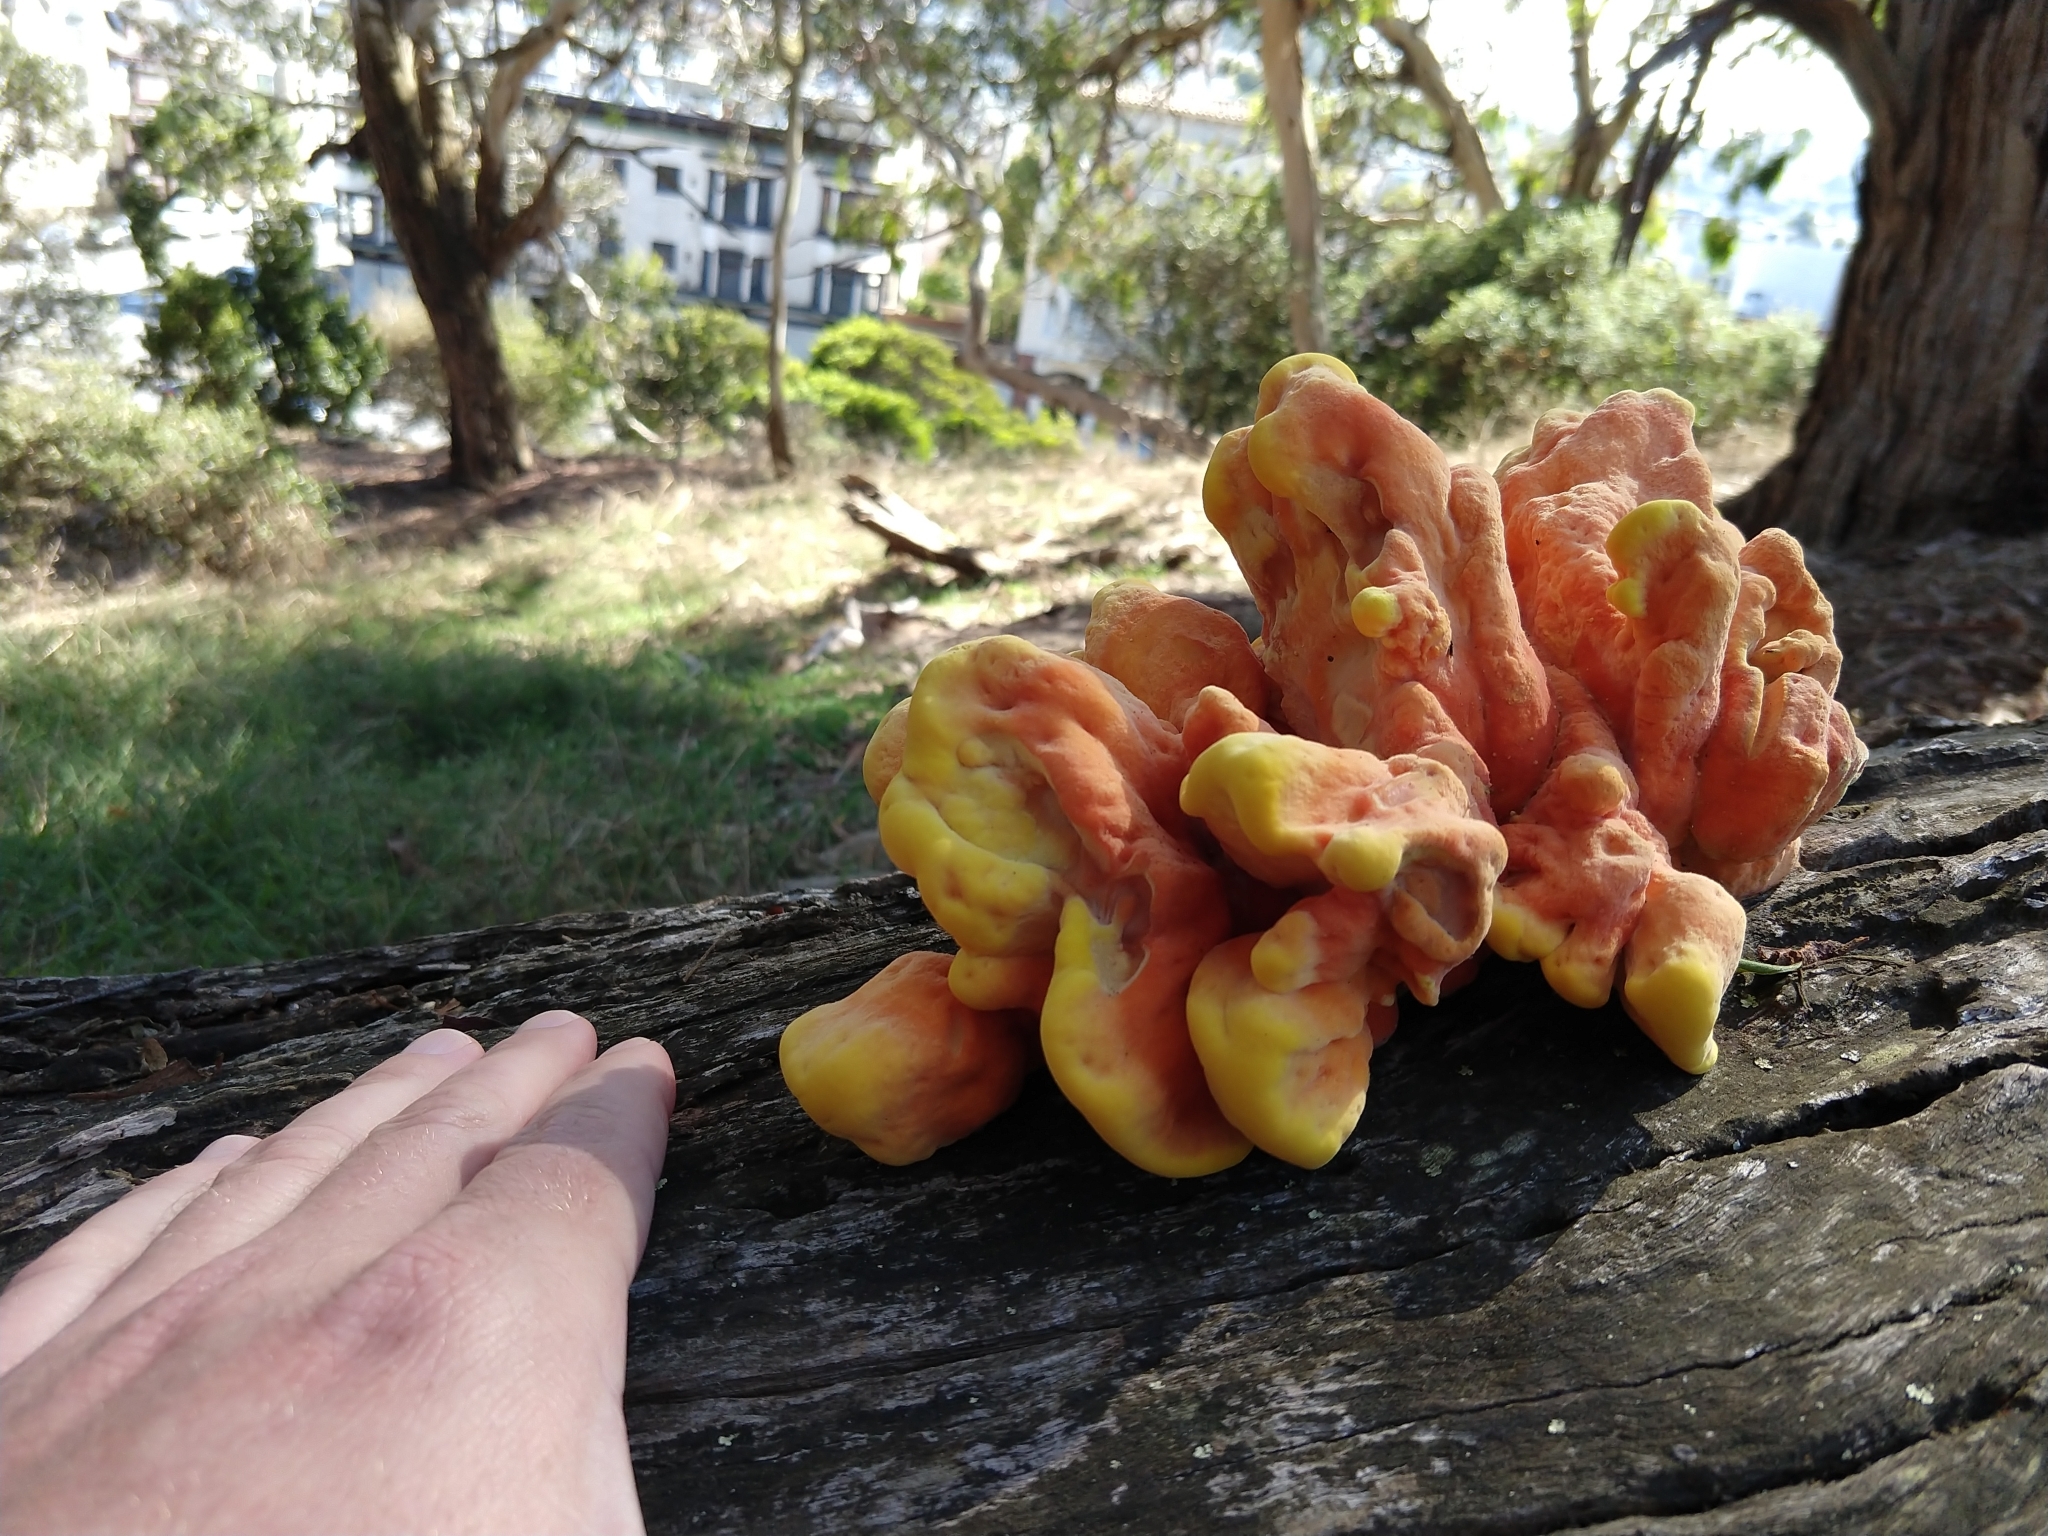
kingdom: Fungi
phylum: Basidiomycota
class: Agaricomycetes
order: Polyporales
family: Laetiporaceae
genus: Laetiporus
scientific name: Laetiporus gilbertsonii
